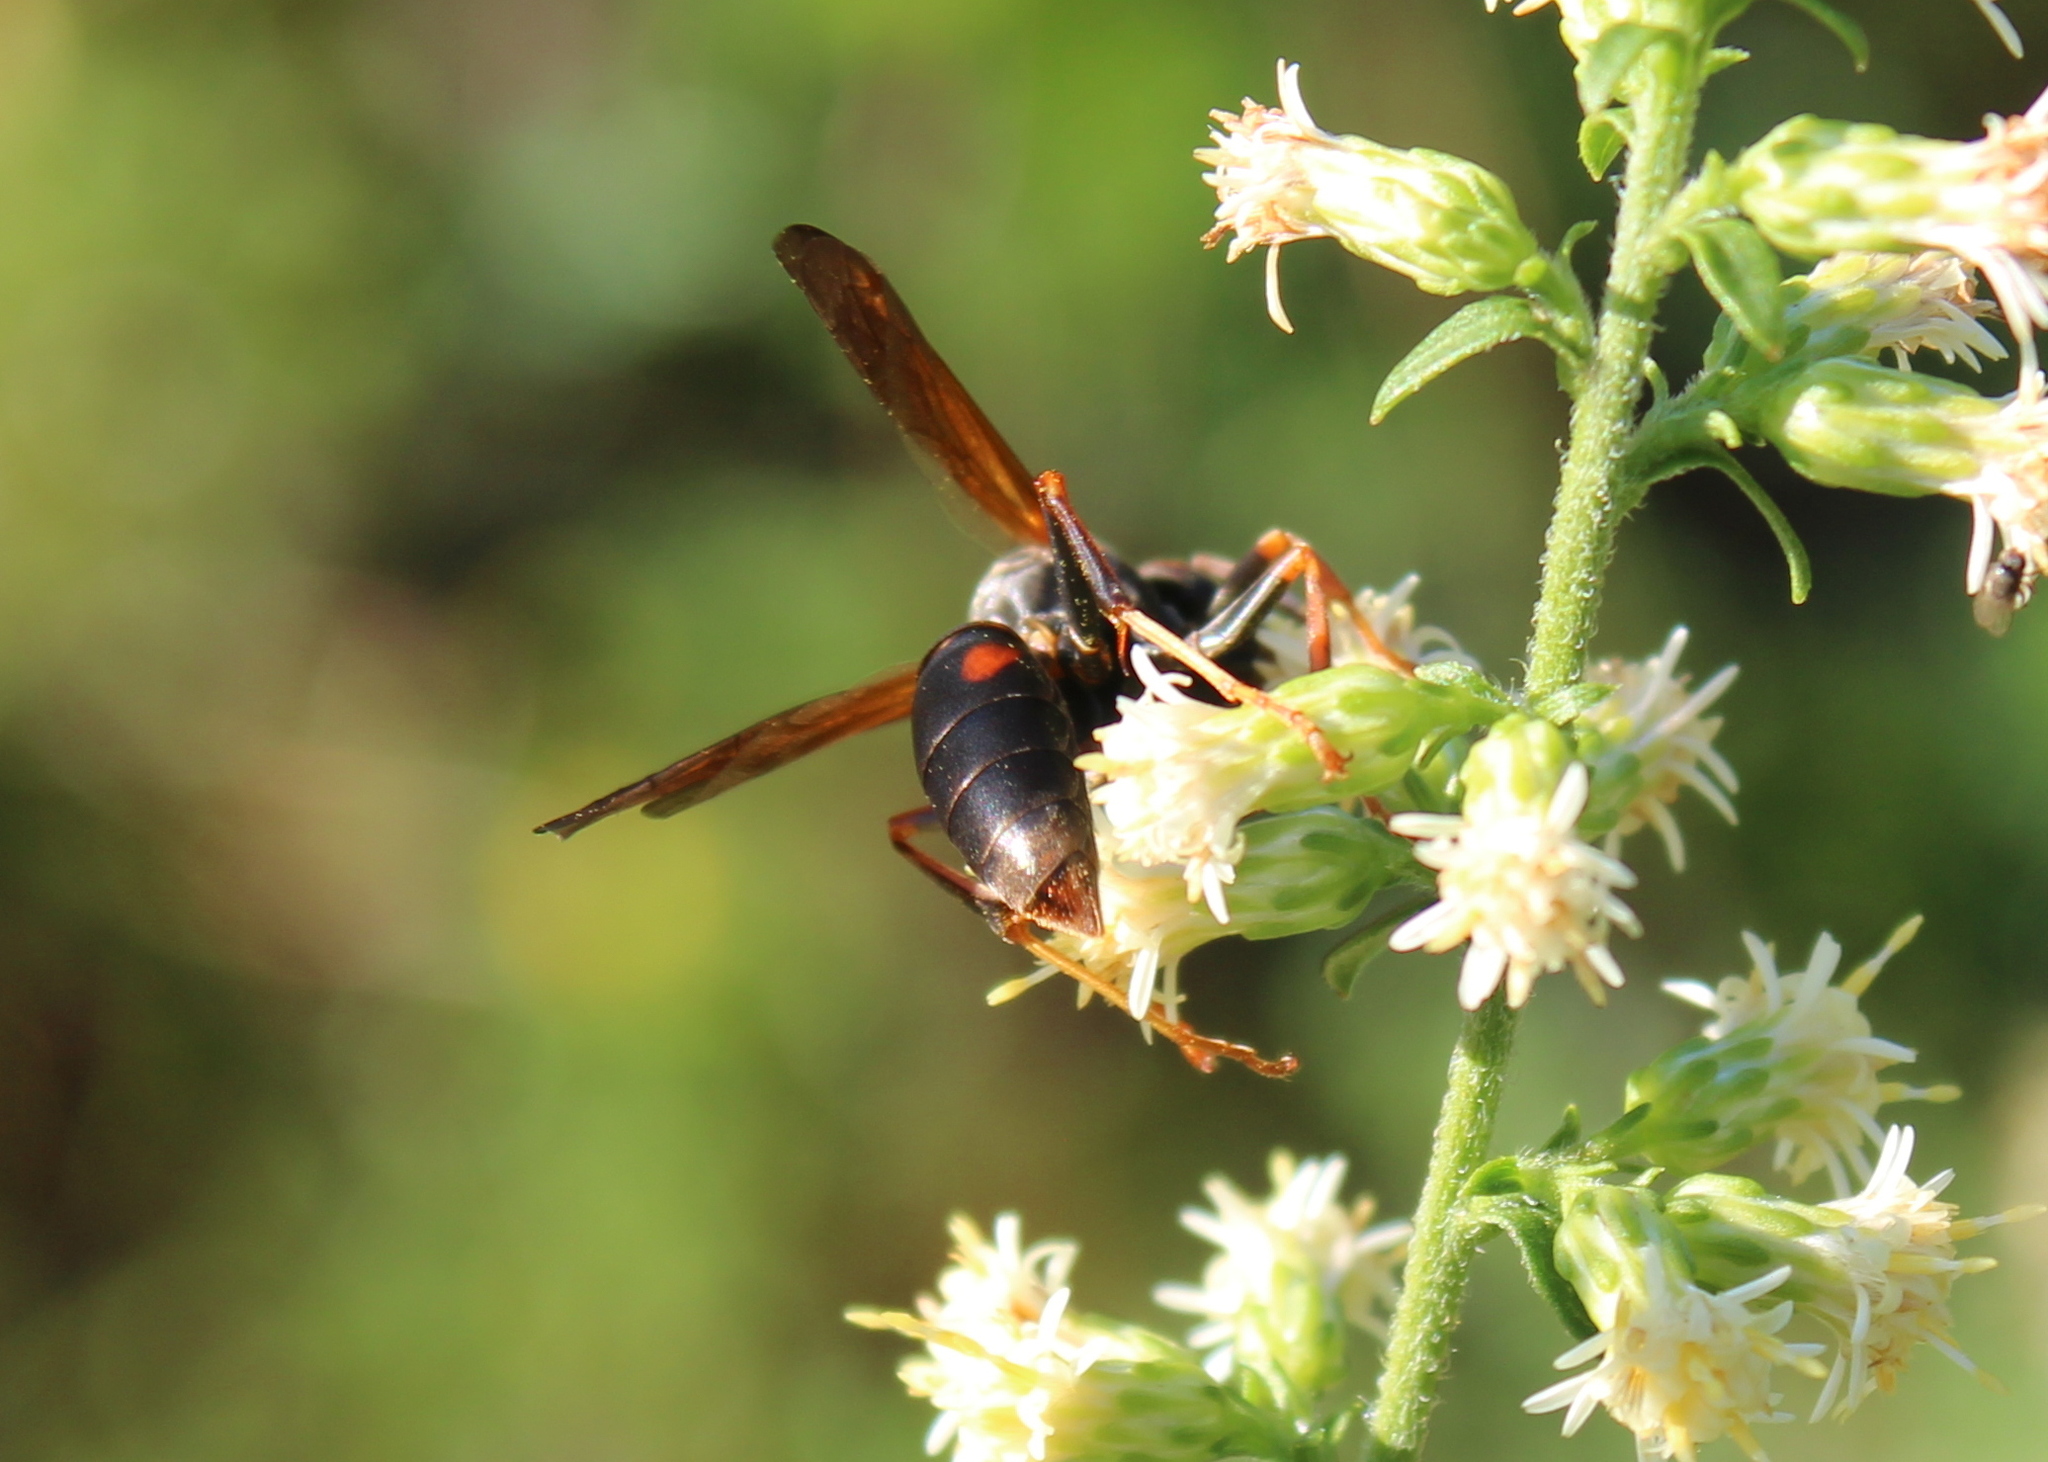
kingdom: Animalia
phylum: Arthropoda
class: Insecta
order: Hymenoptera
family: Eumenidae
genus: Polistes
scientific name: Polistes fuscatus
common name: Dark paper wasp
